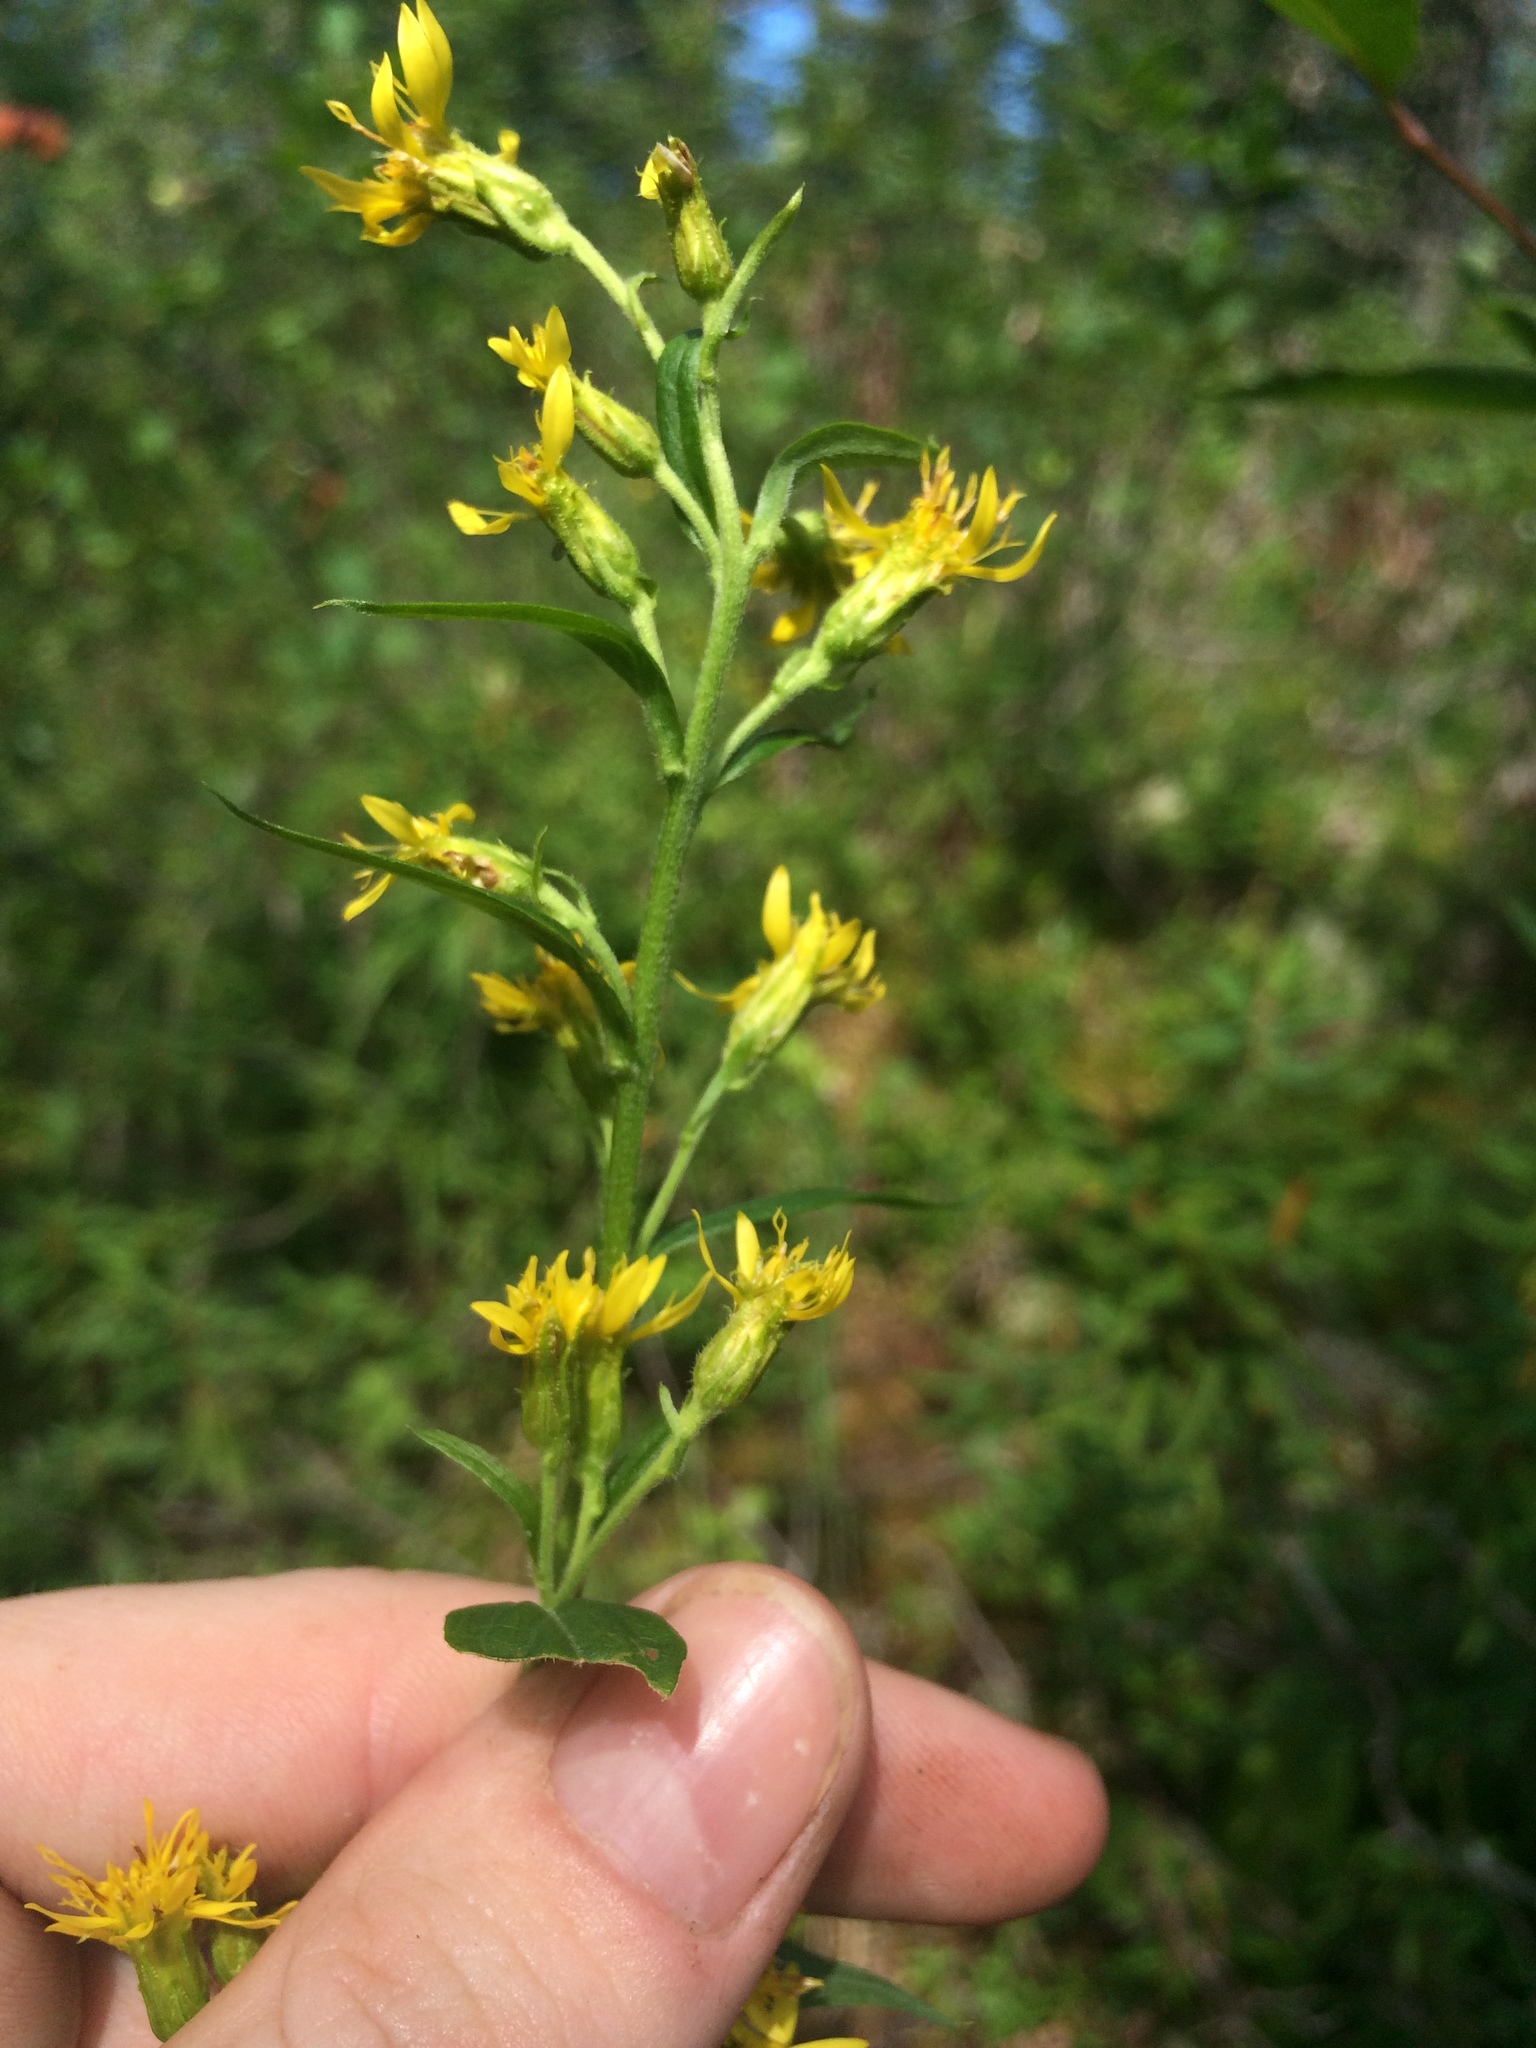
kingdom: Plantae
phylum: Tracheophyta
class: Magnoliopsida
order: Asterales
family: Asteraceae
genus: Solidago
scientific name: Solidago macrophylla
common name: Large-leaved goldenrod
